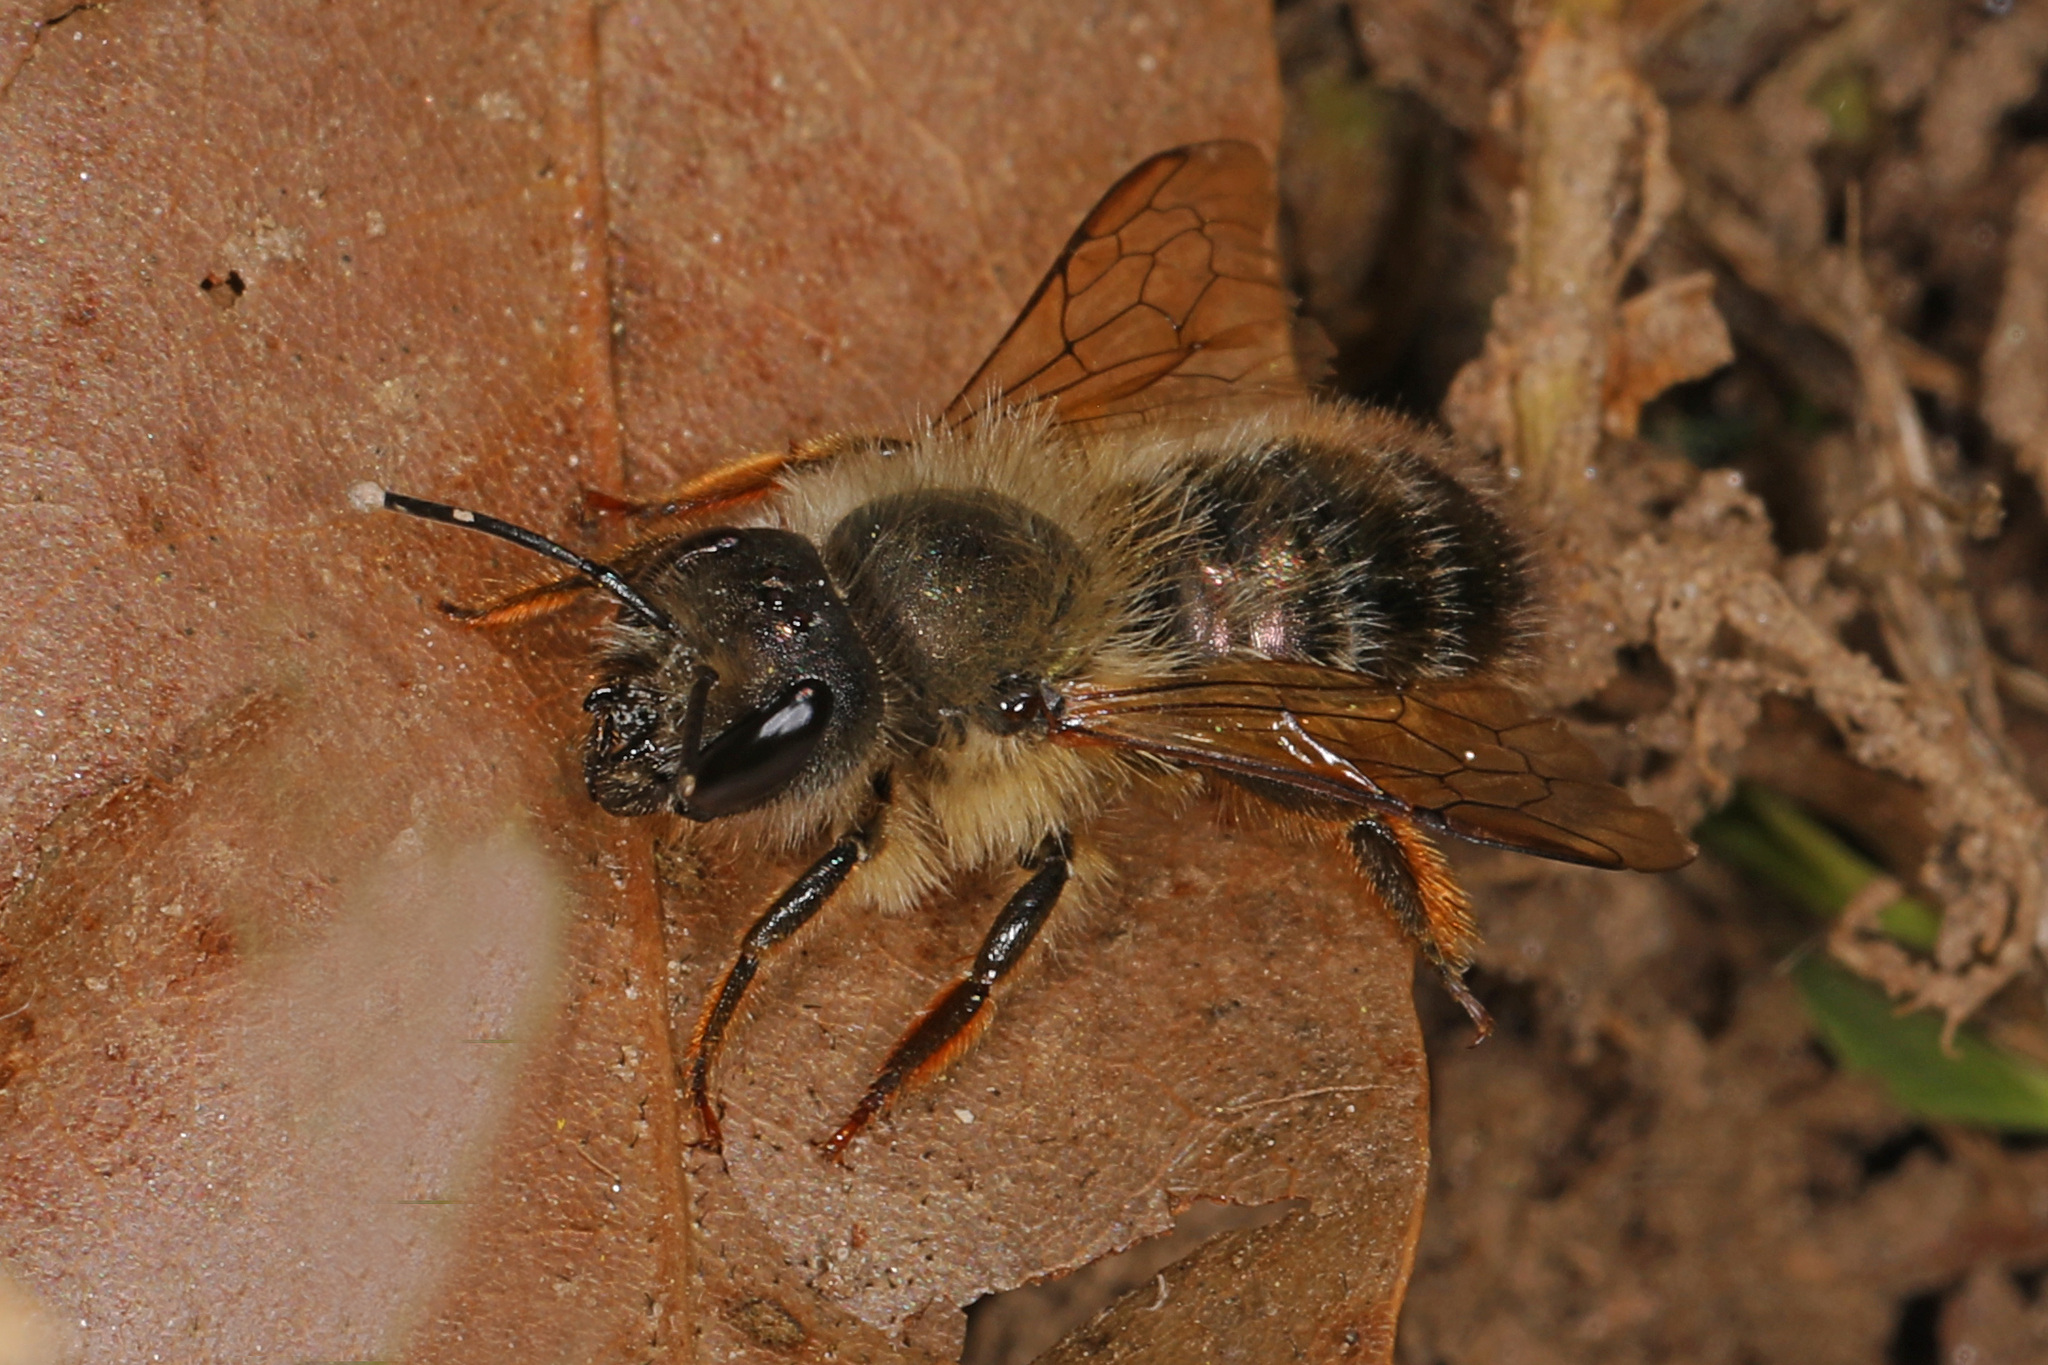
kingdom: Animalia
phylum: Arthropoda
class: Insecta
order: Hymenoptera
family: Megachilidae
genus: Osmia
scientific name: Osmia taurus
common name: Taurus mason bee
